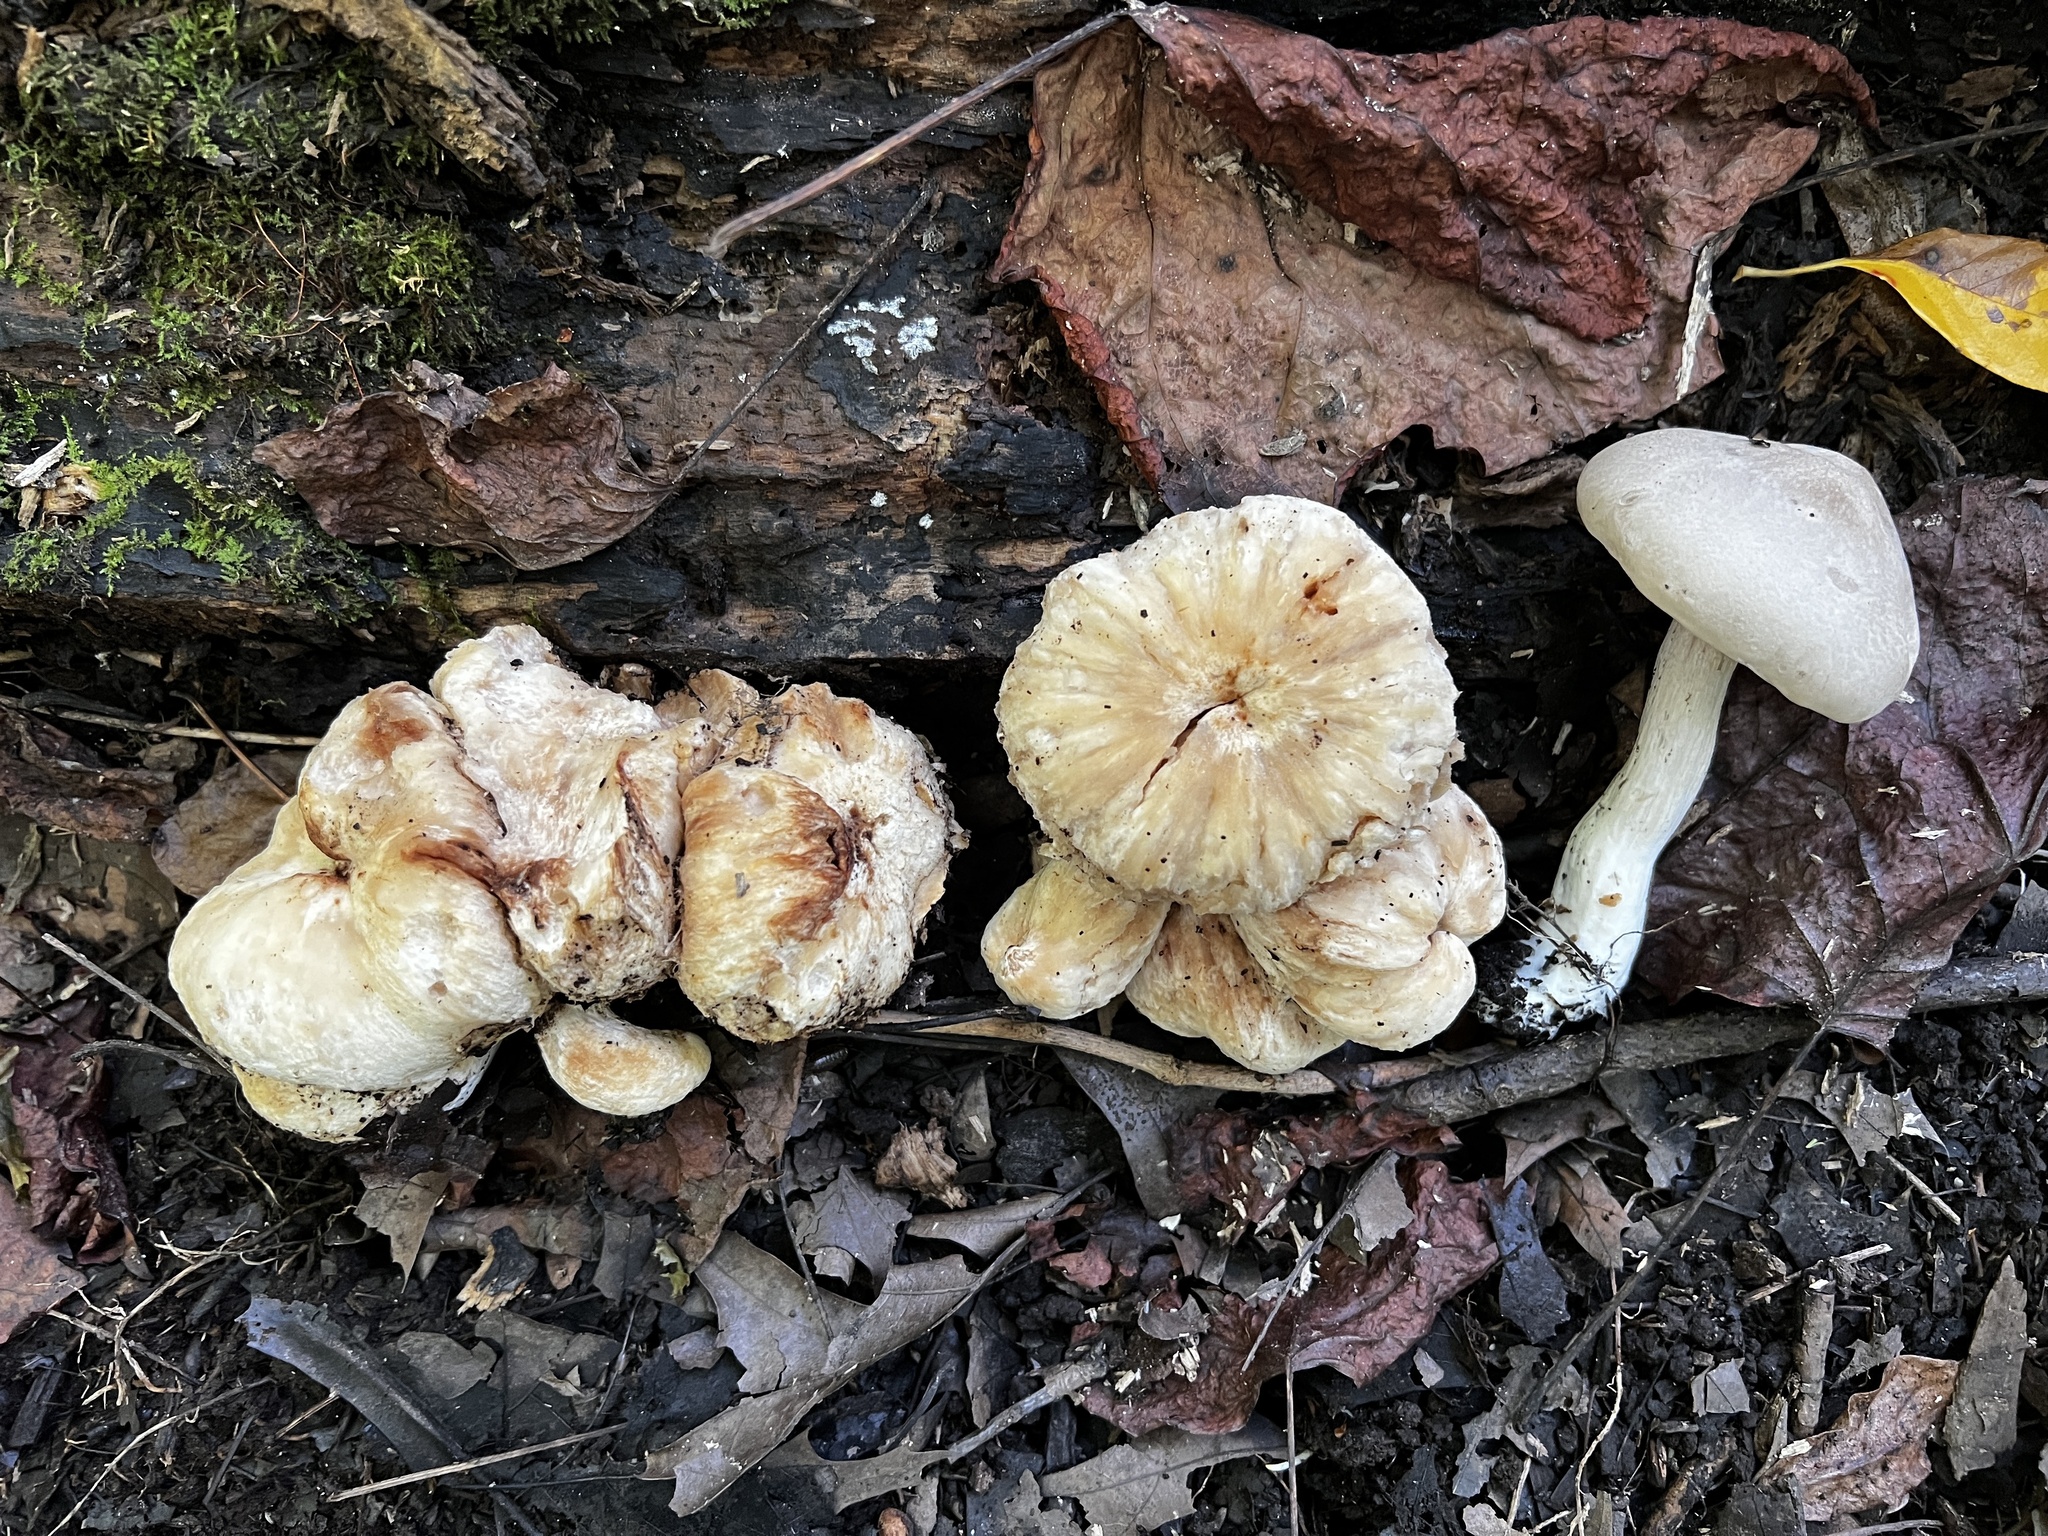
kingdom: Fungi
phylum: Basidiomycota
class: Agaricomycetes
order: Agaricales
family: Entolomataceae
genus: Entoloma
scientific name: Entoloma abortivum
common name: Aborted entoloma
